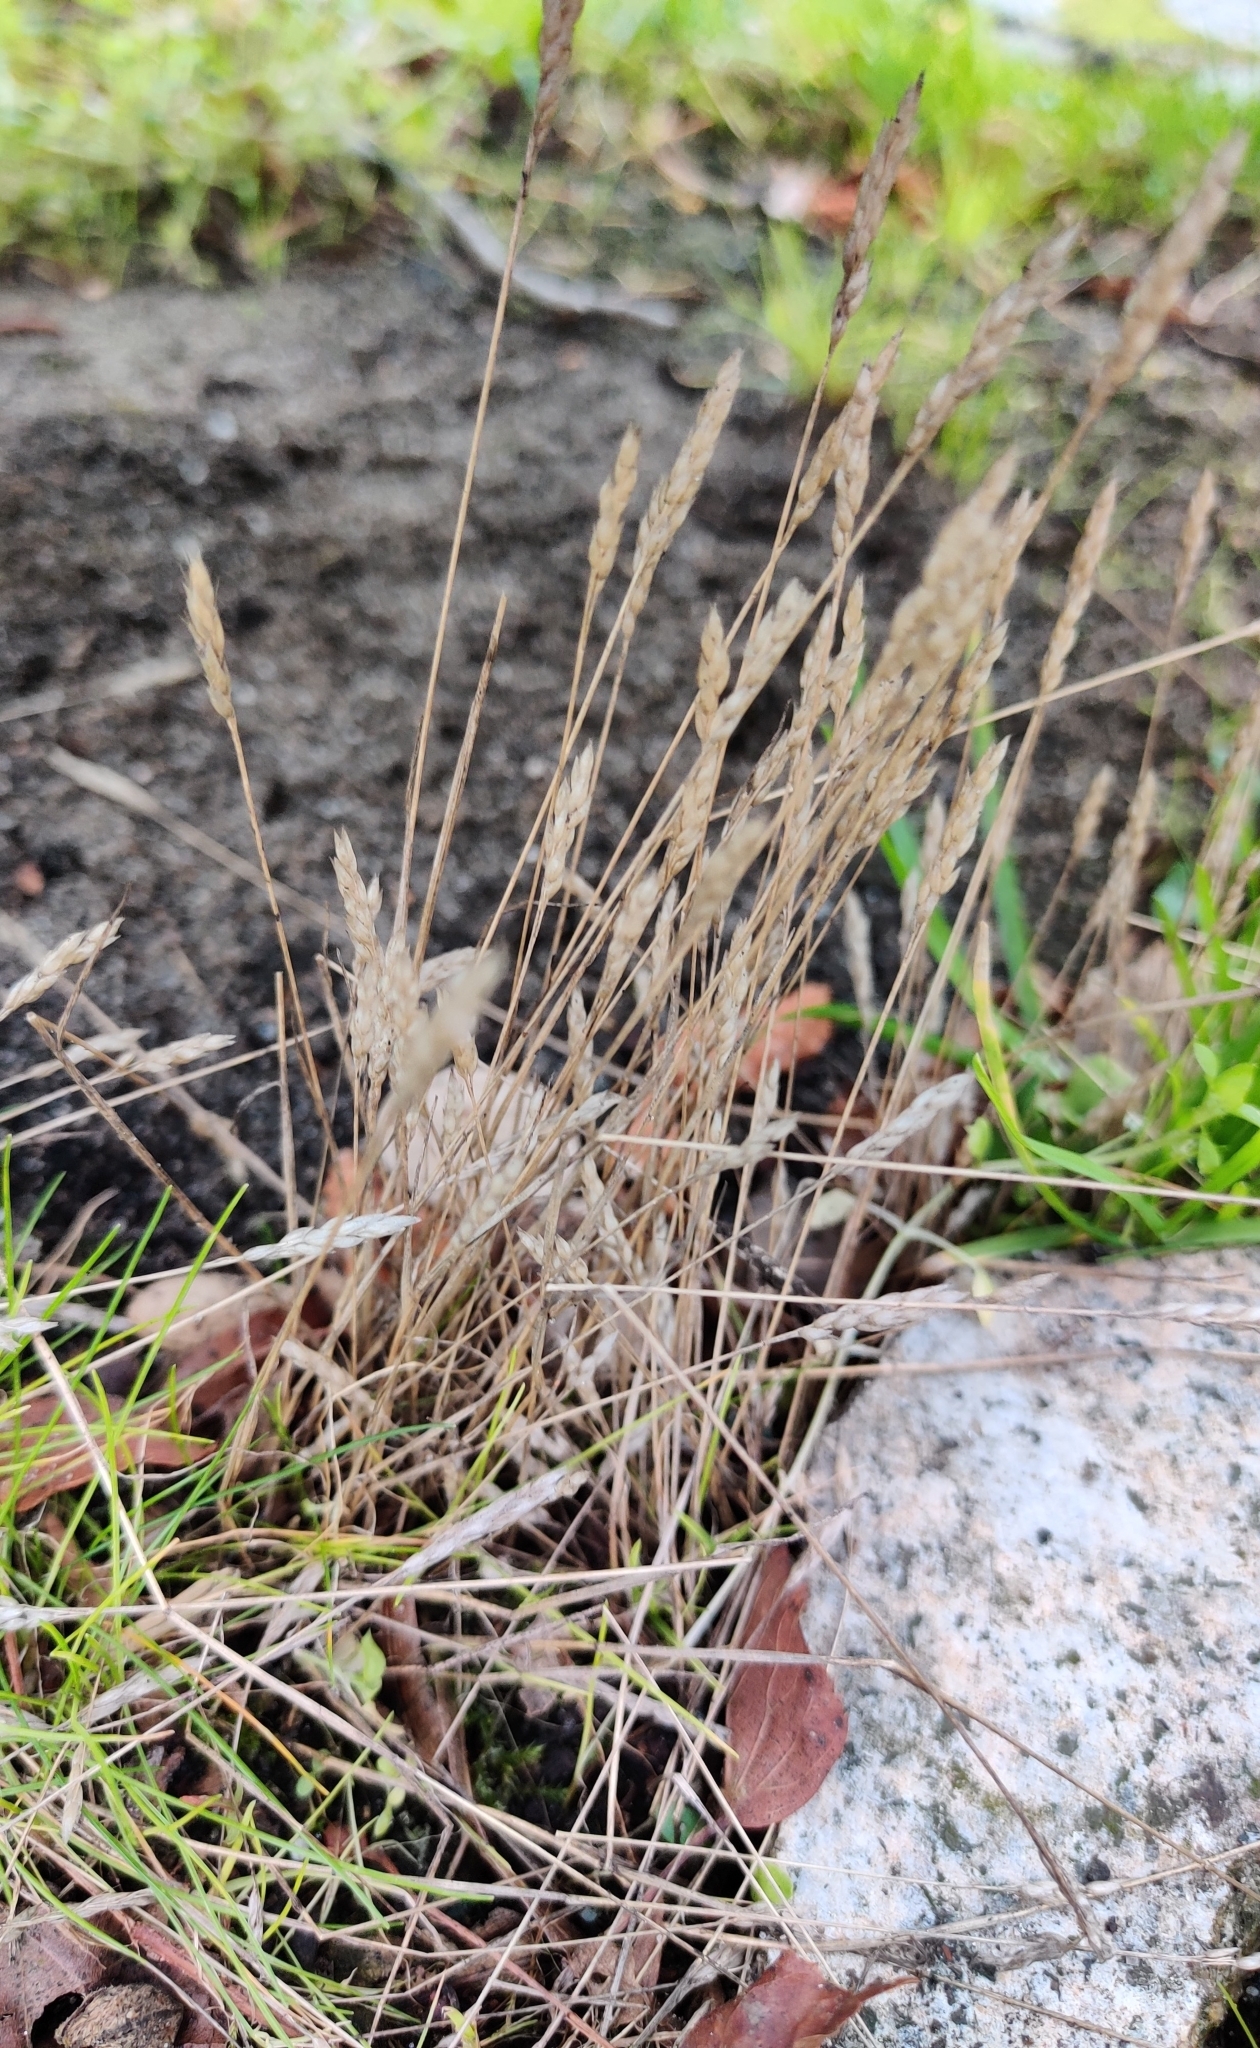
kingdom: Plantae
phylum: Tracheophyta
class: Liliopsida
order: Poales
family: Poaceae
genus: Aira
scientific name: Aira praecox
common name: Early hair-grass
